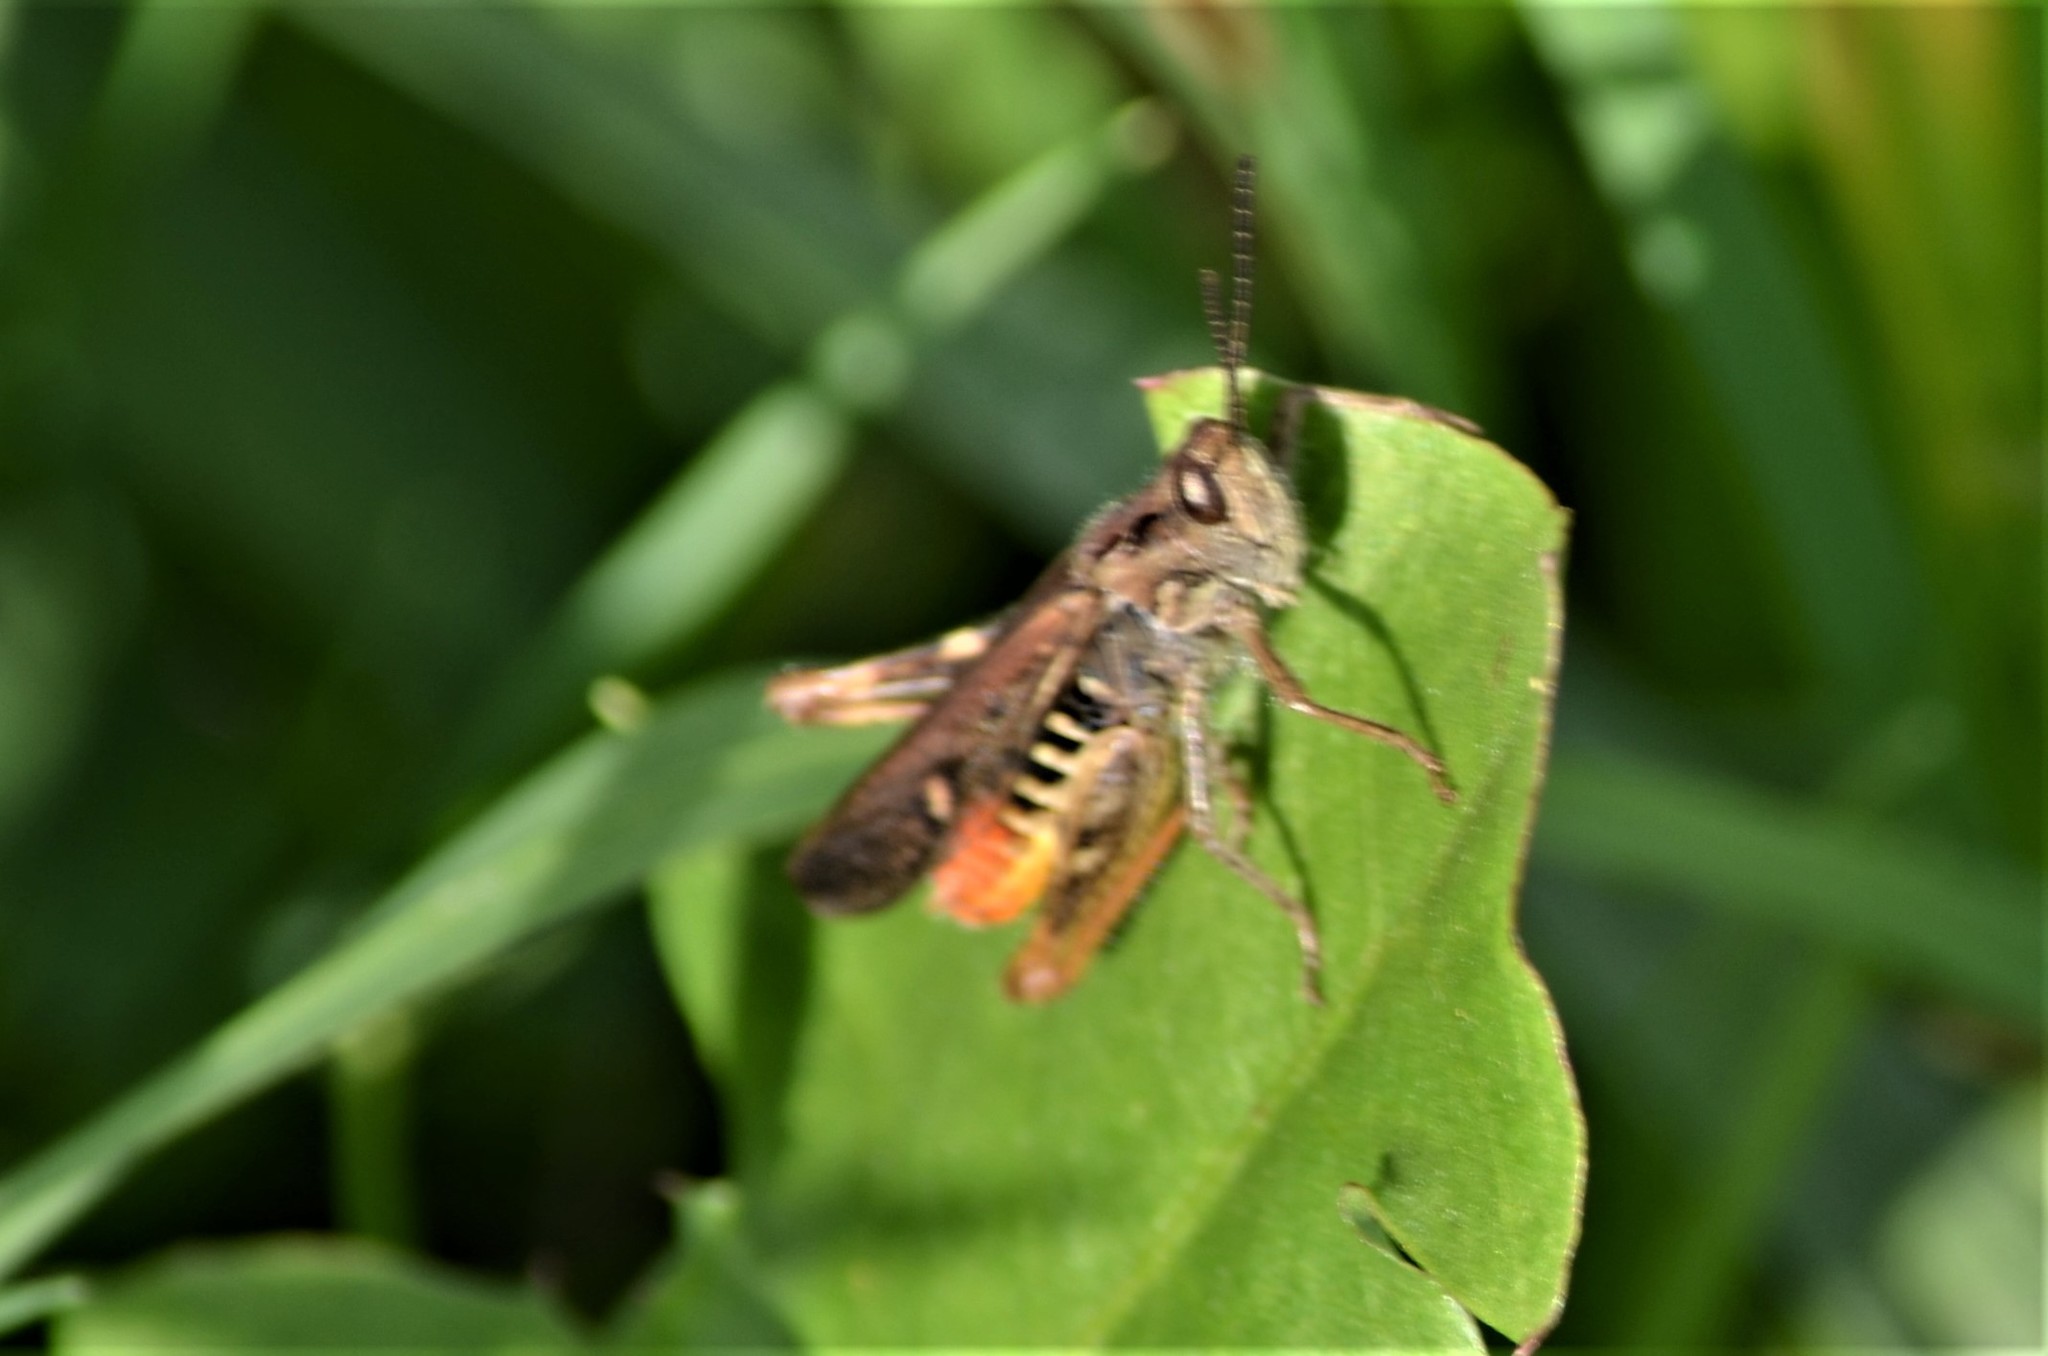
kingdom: Animalia
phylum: Arthropoda
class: Insecta
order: Orthoptera
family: Acrididae
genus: Chorthippus
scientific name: Chorthippus brunneus
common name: Field grasshopper
